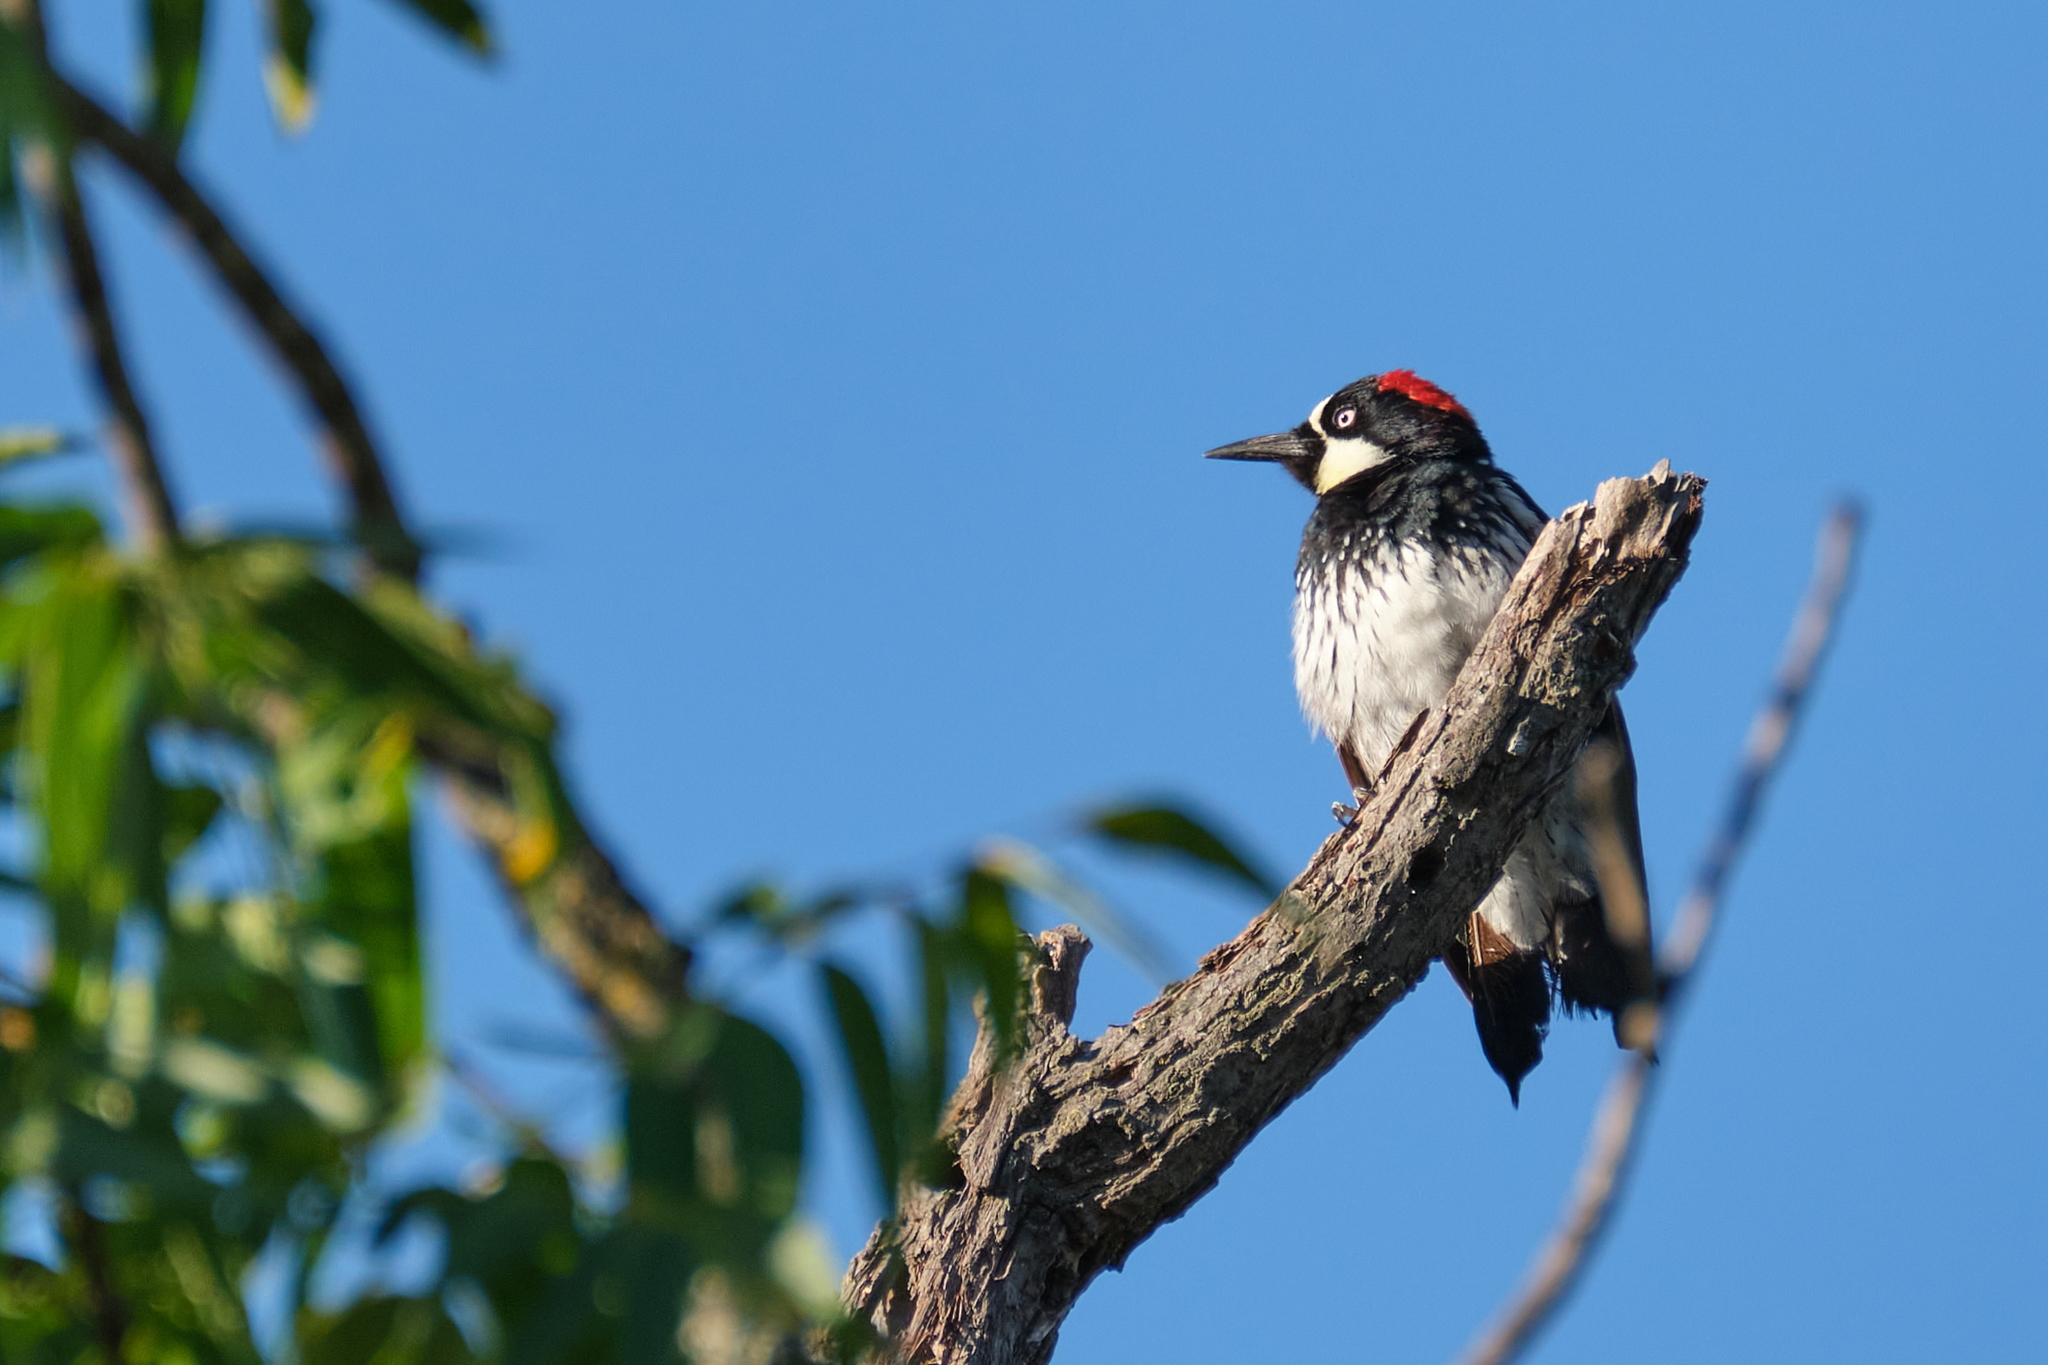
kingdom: Animalia
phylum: Chordata
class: Aves
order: Piciformes
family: Picidae
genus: Melanerpes
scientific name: Melanerpes formicivorus
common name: Acorn woodpecker
